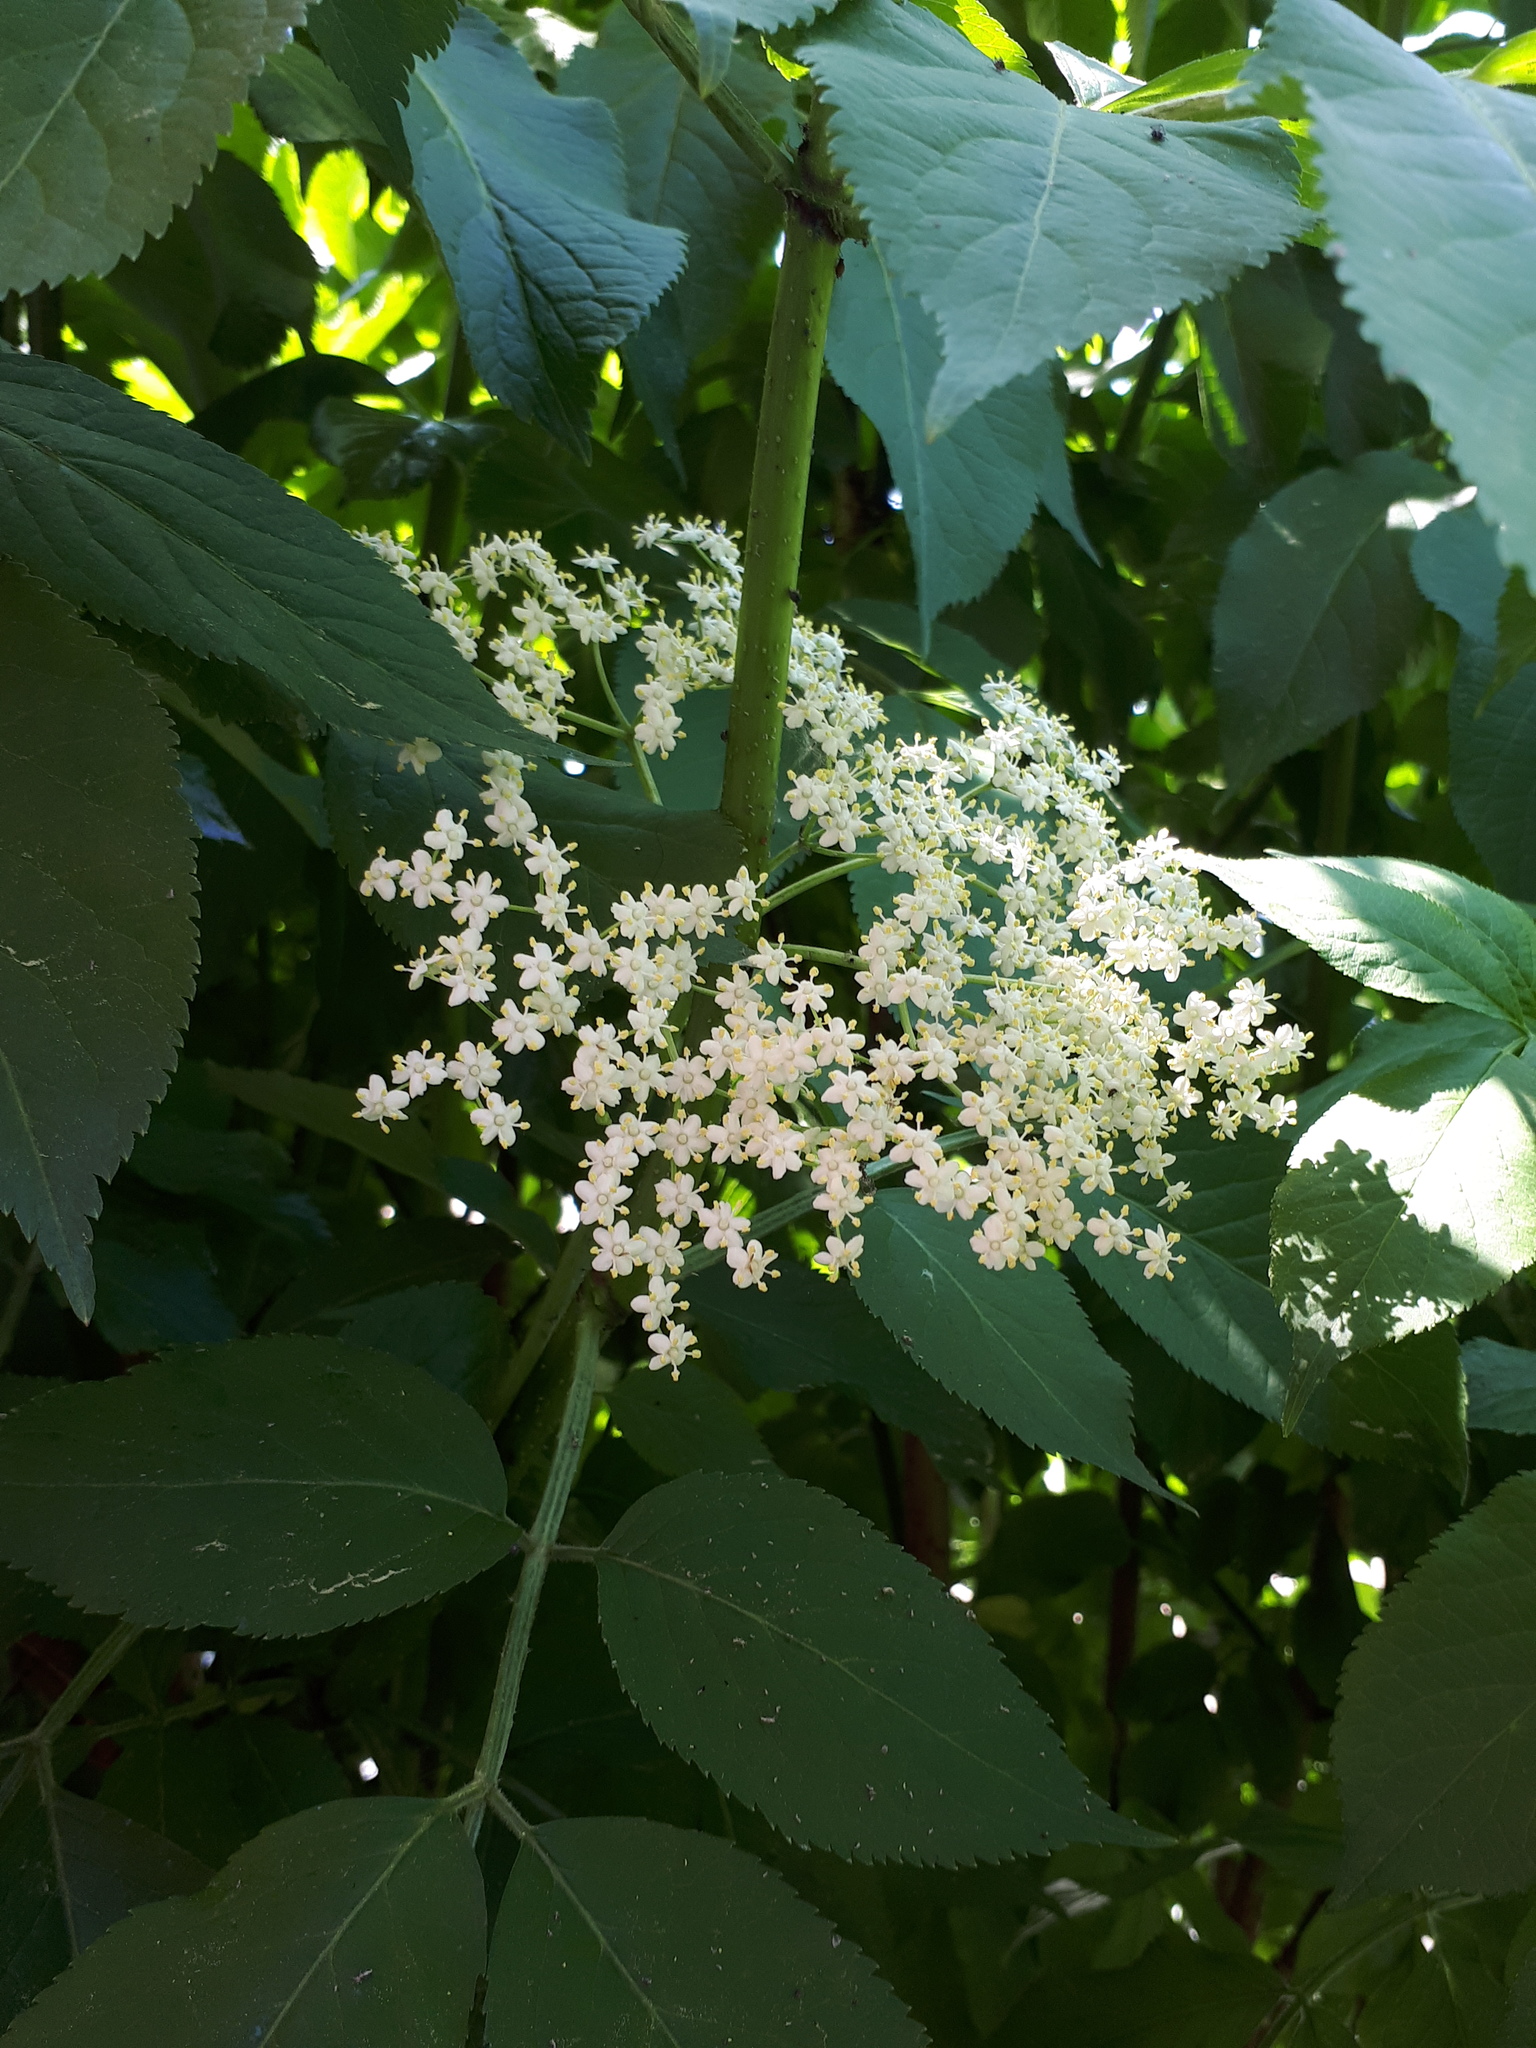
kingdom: Plantae
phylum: Tracheophyta
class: Magnoliopsida
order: Dipsacales
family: Viburnaceae
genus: Sambucus
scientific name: Sambucus nigra
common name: Elder
